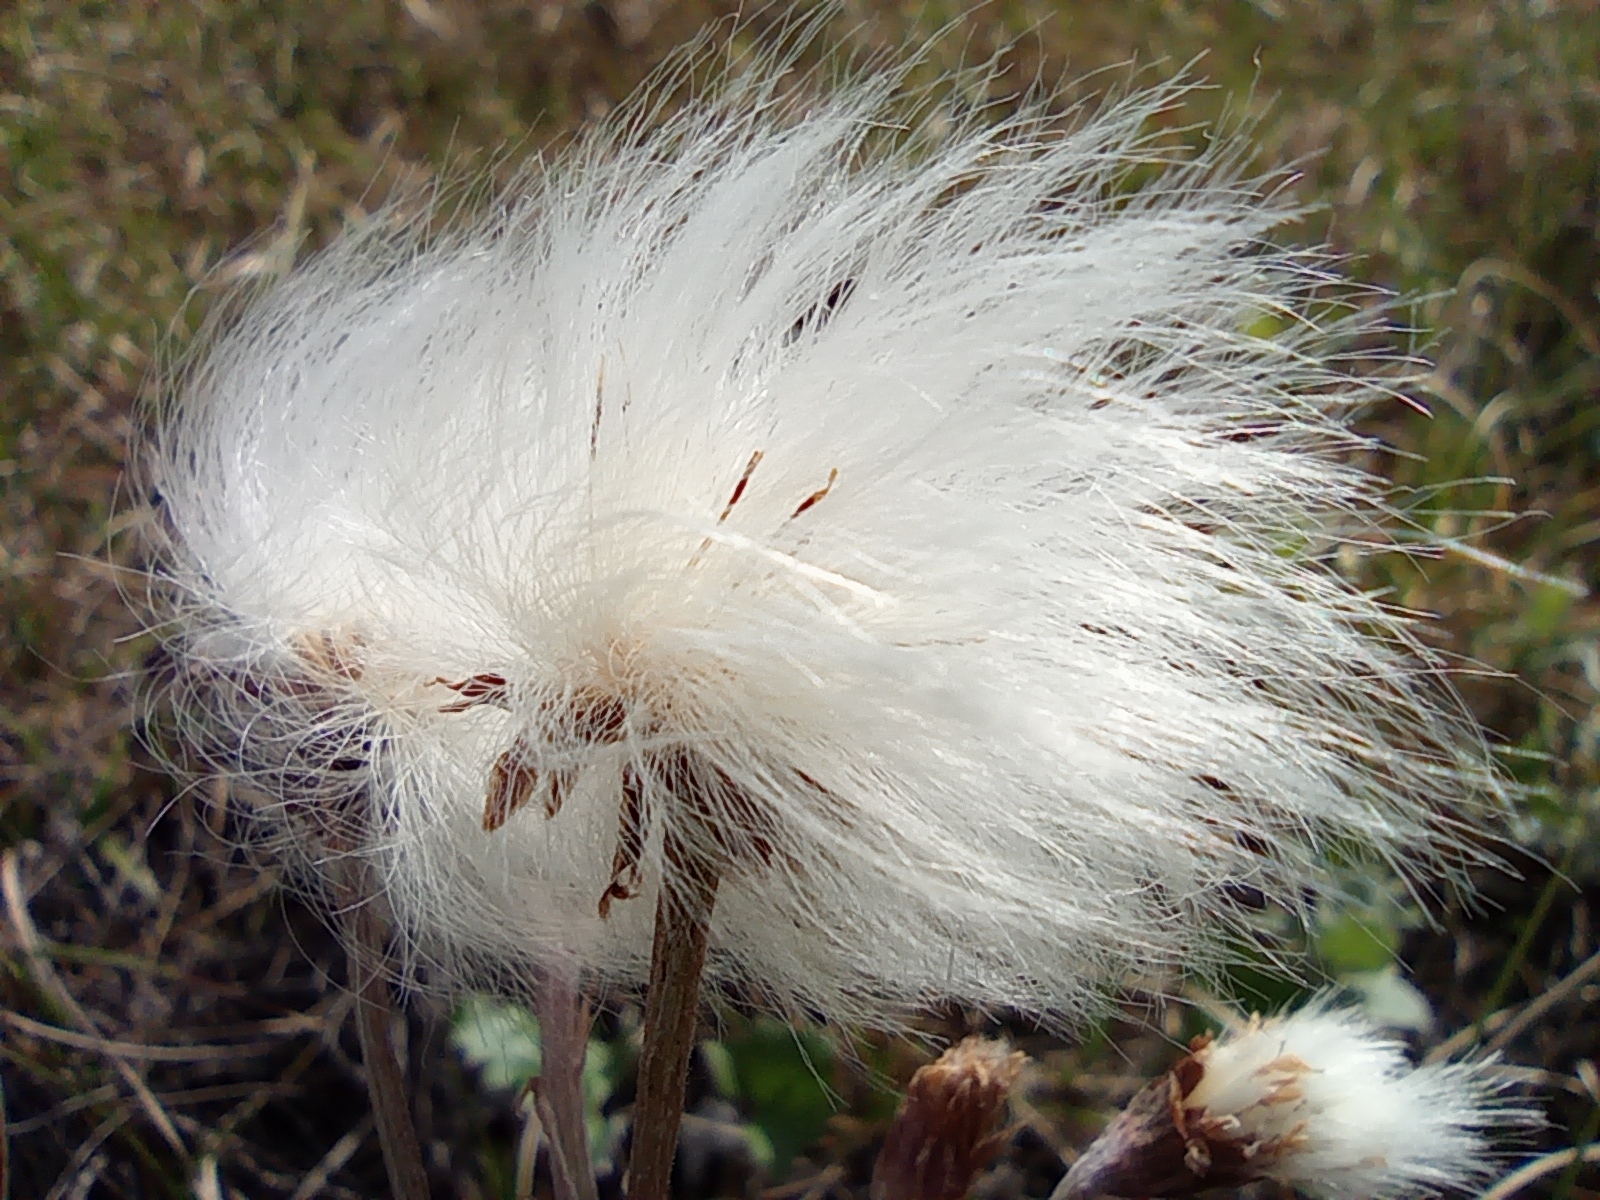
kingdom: Plantae
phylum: Tracheophyta
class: Magnoliopsida
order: Asterales
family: Asteraceae
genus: Petasites
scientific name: Petasites frigidus
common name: Arctic butterbur
